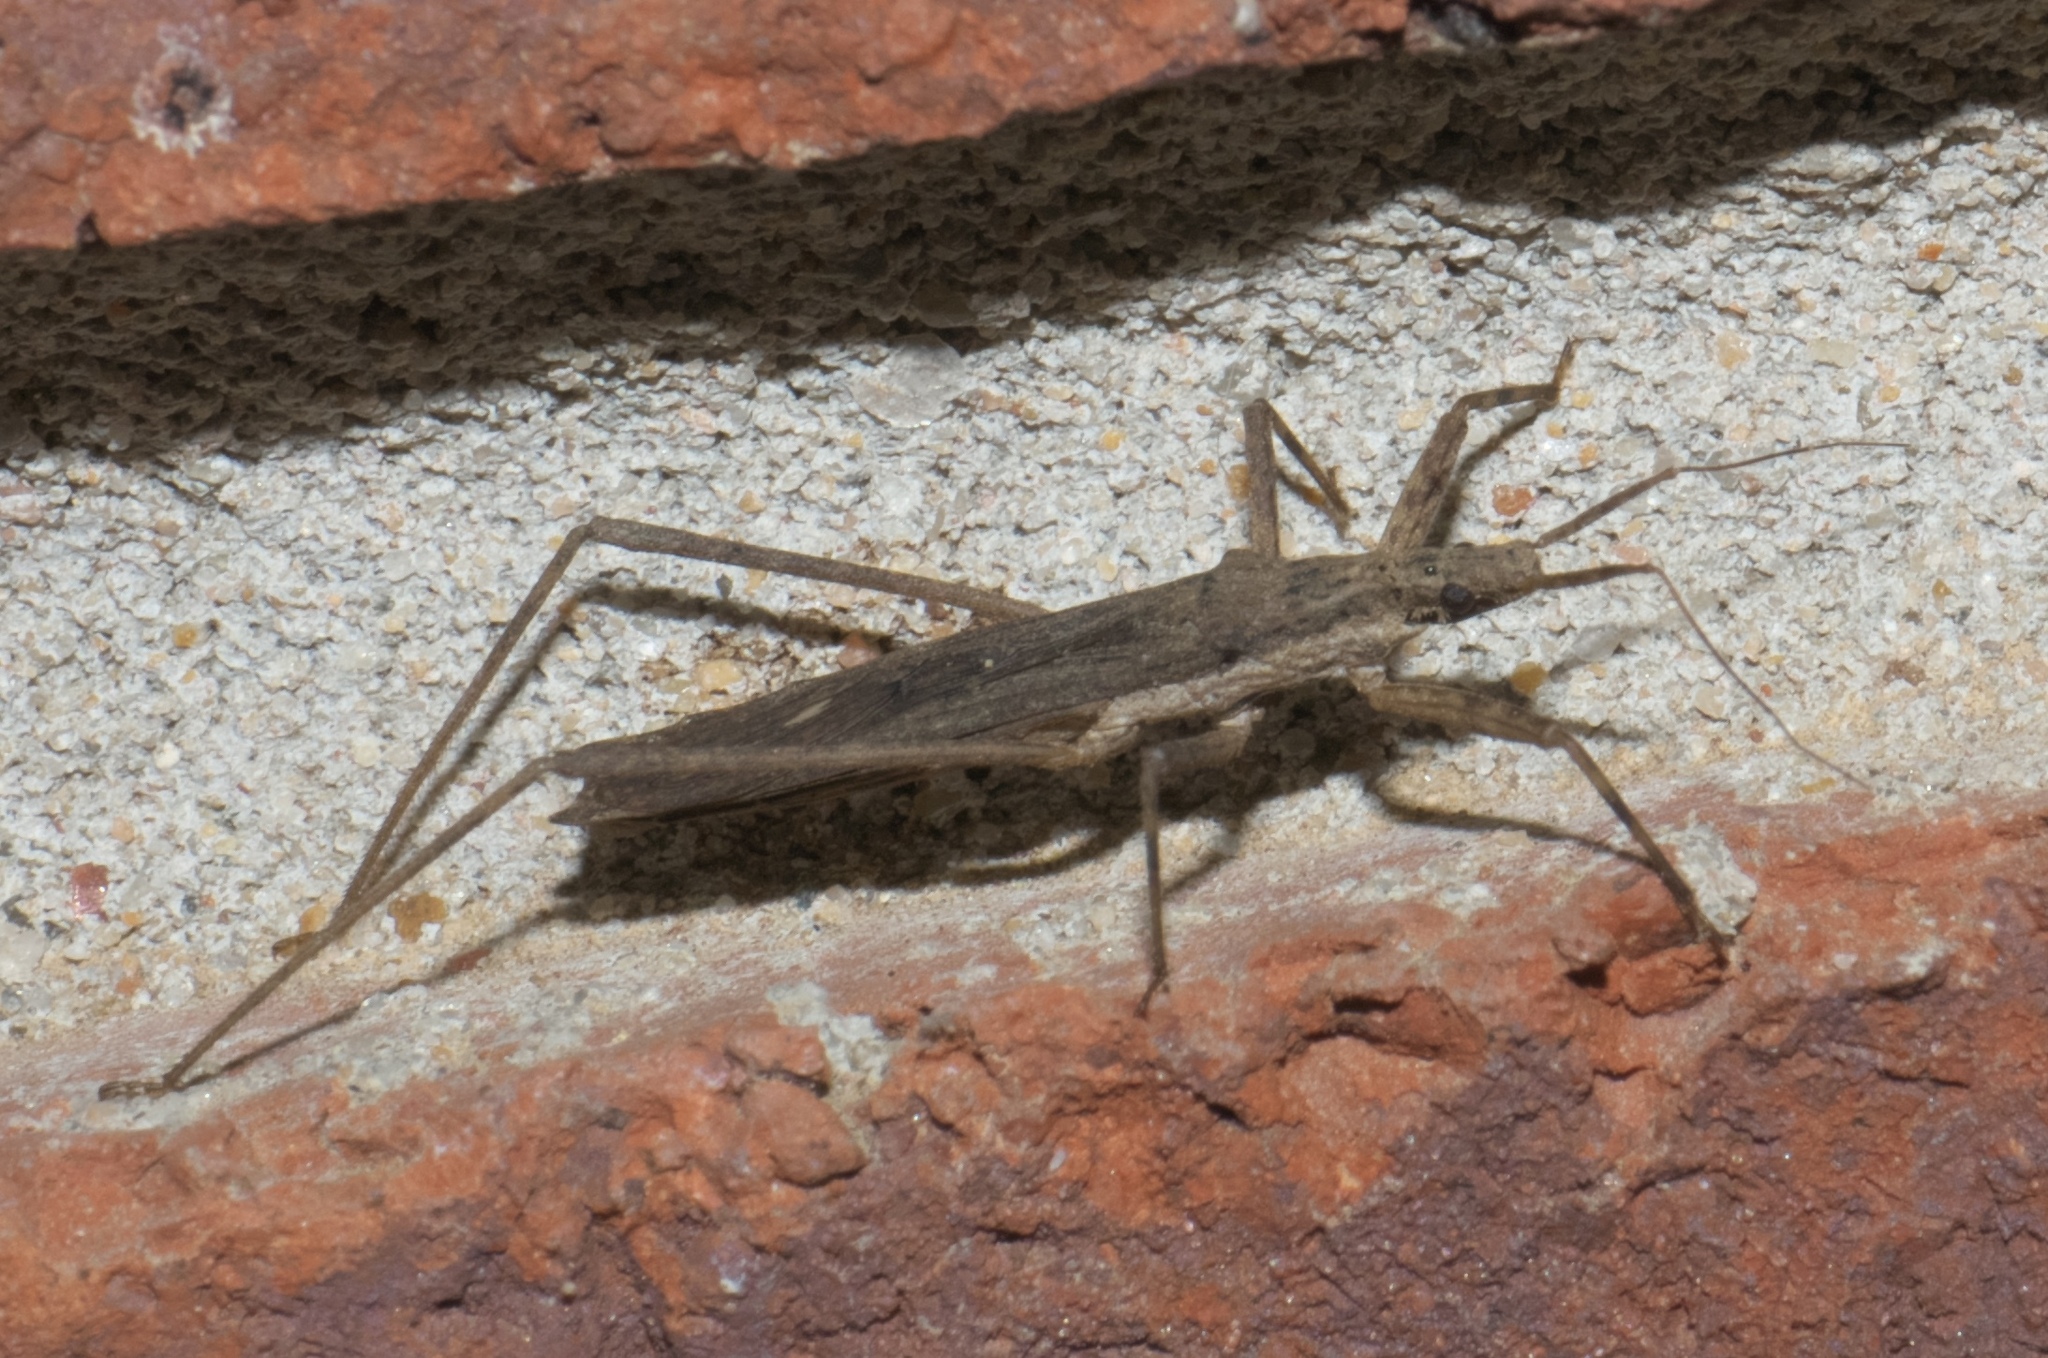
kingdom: Animalia
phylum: Arthropoda
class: Insecta
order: Hemiptera
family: Reduviidae
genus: Pygolampis
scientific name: Pygolampis pectoralis
